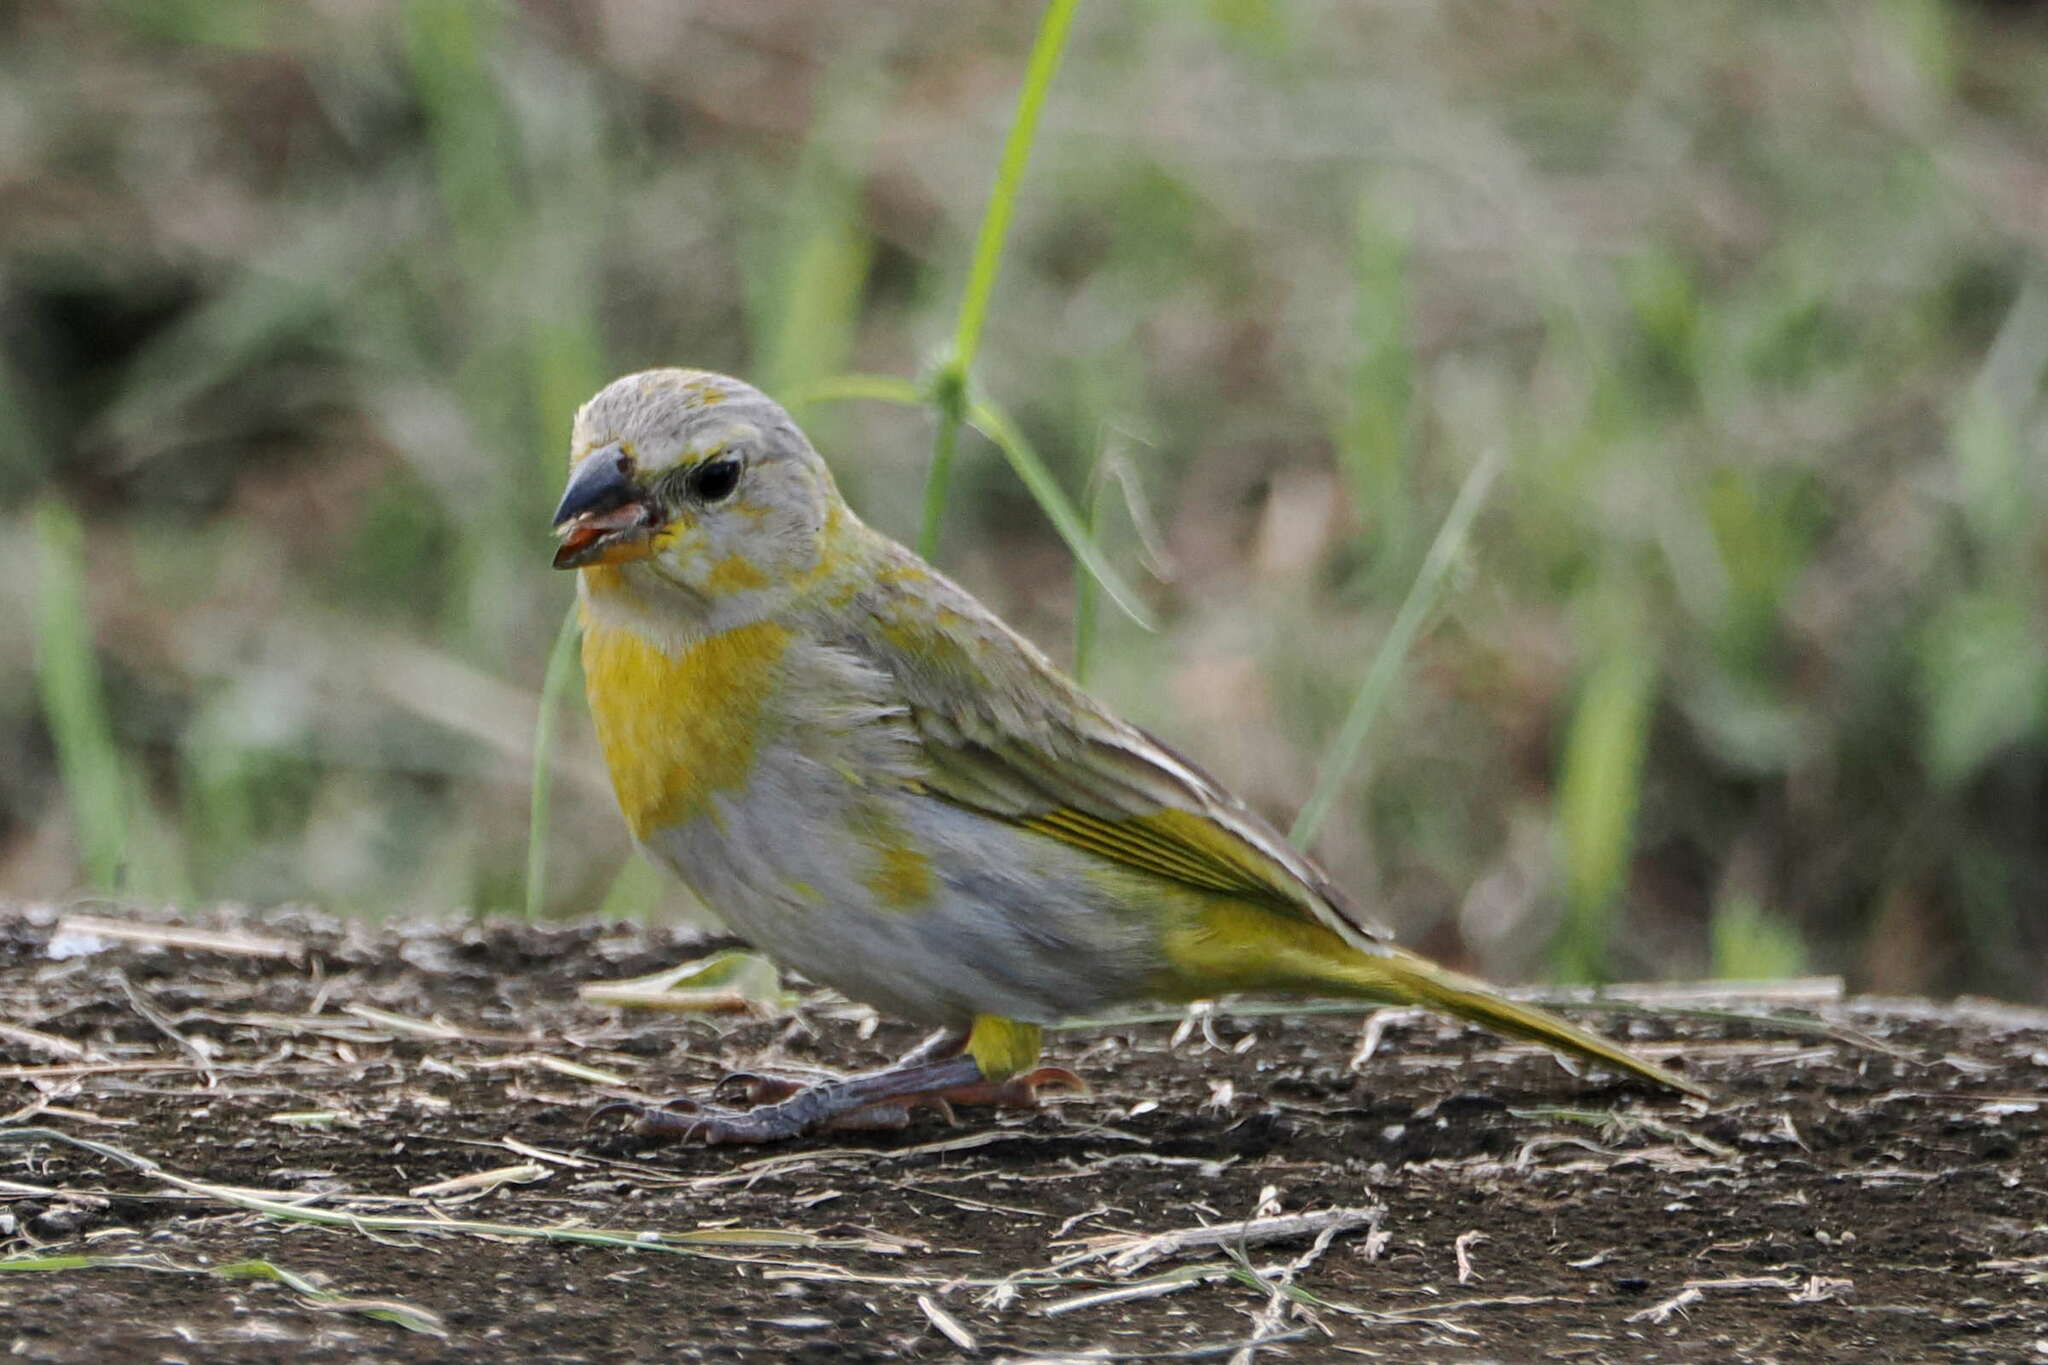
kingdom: Animalia
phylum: Chordata
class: Aves
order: Passeriformes
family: Thraupidae
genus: Sicalis
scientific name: Sicalis flaveola
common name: Saffron finch
